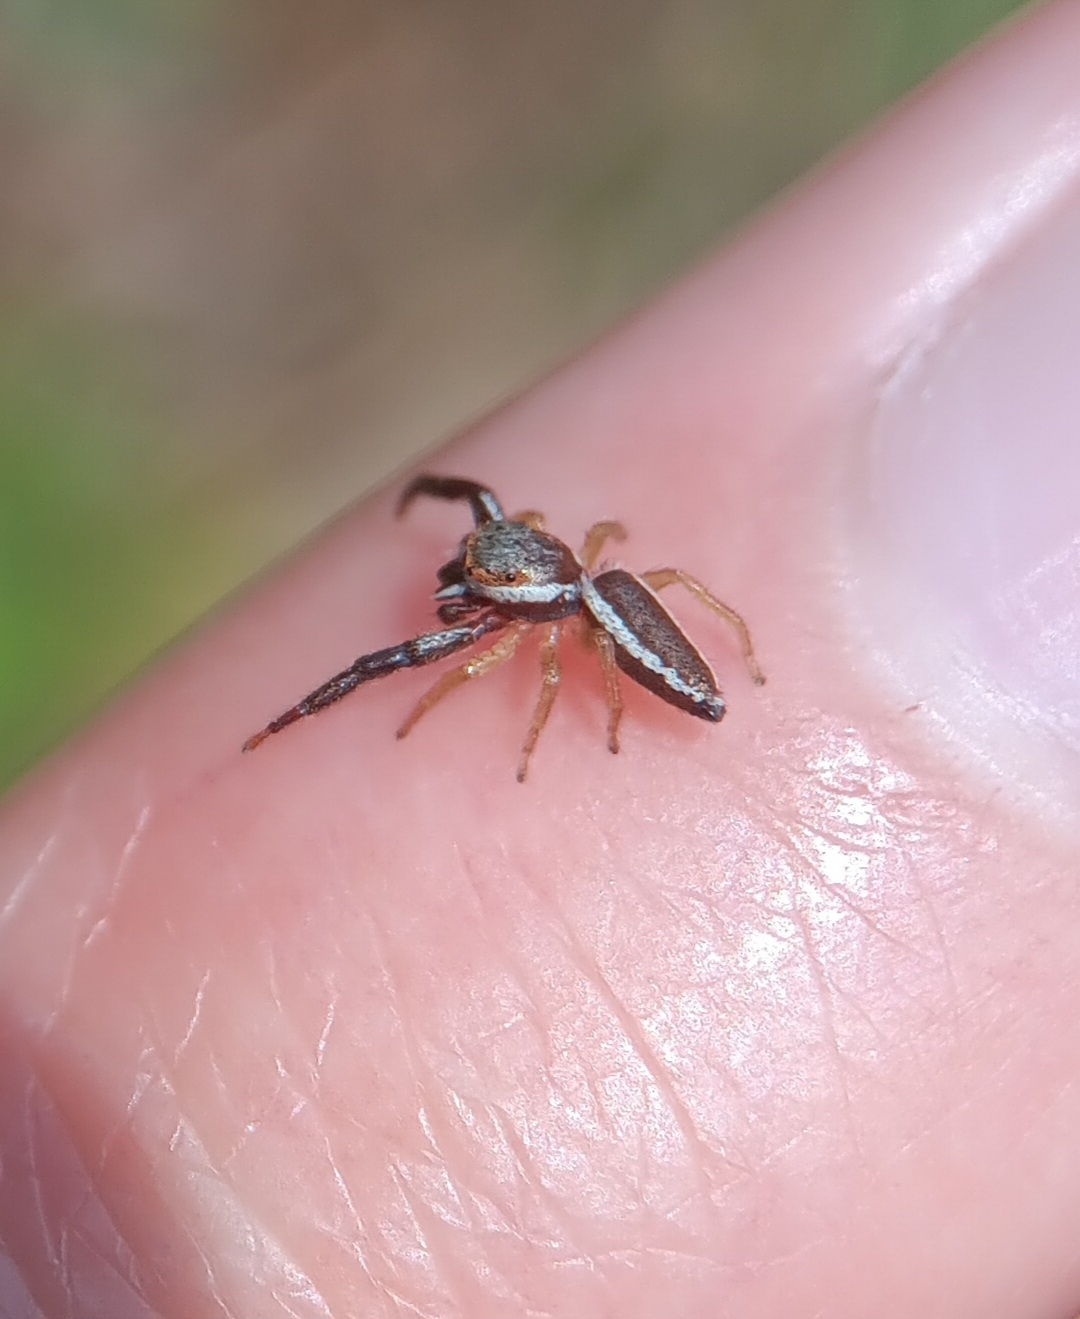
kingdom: Animalia
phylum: Arthropoda
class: Arachnida
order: Araneae
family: Salticidae
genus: Hentzia
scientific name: Hentzia palmarum
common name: Common hentz jumping spider
